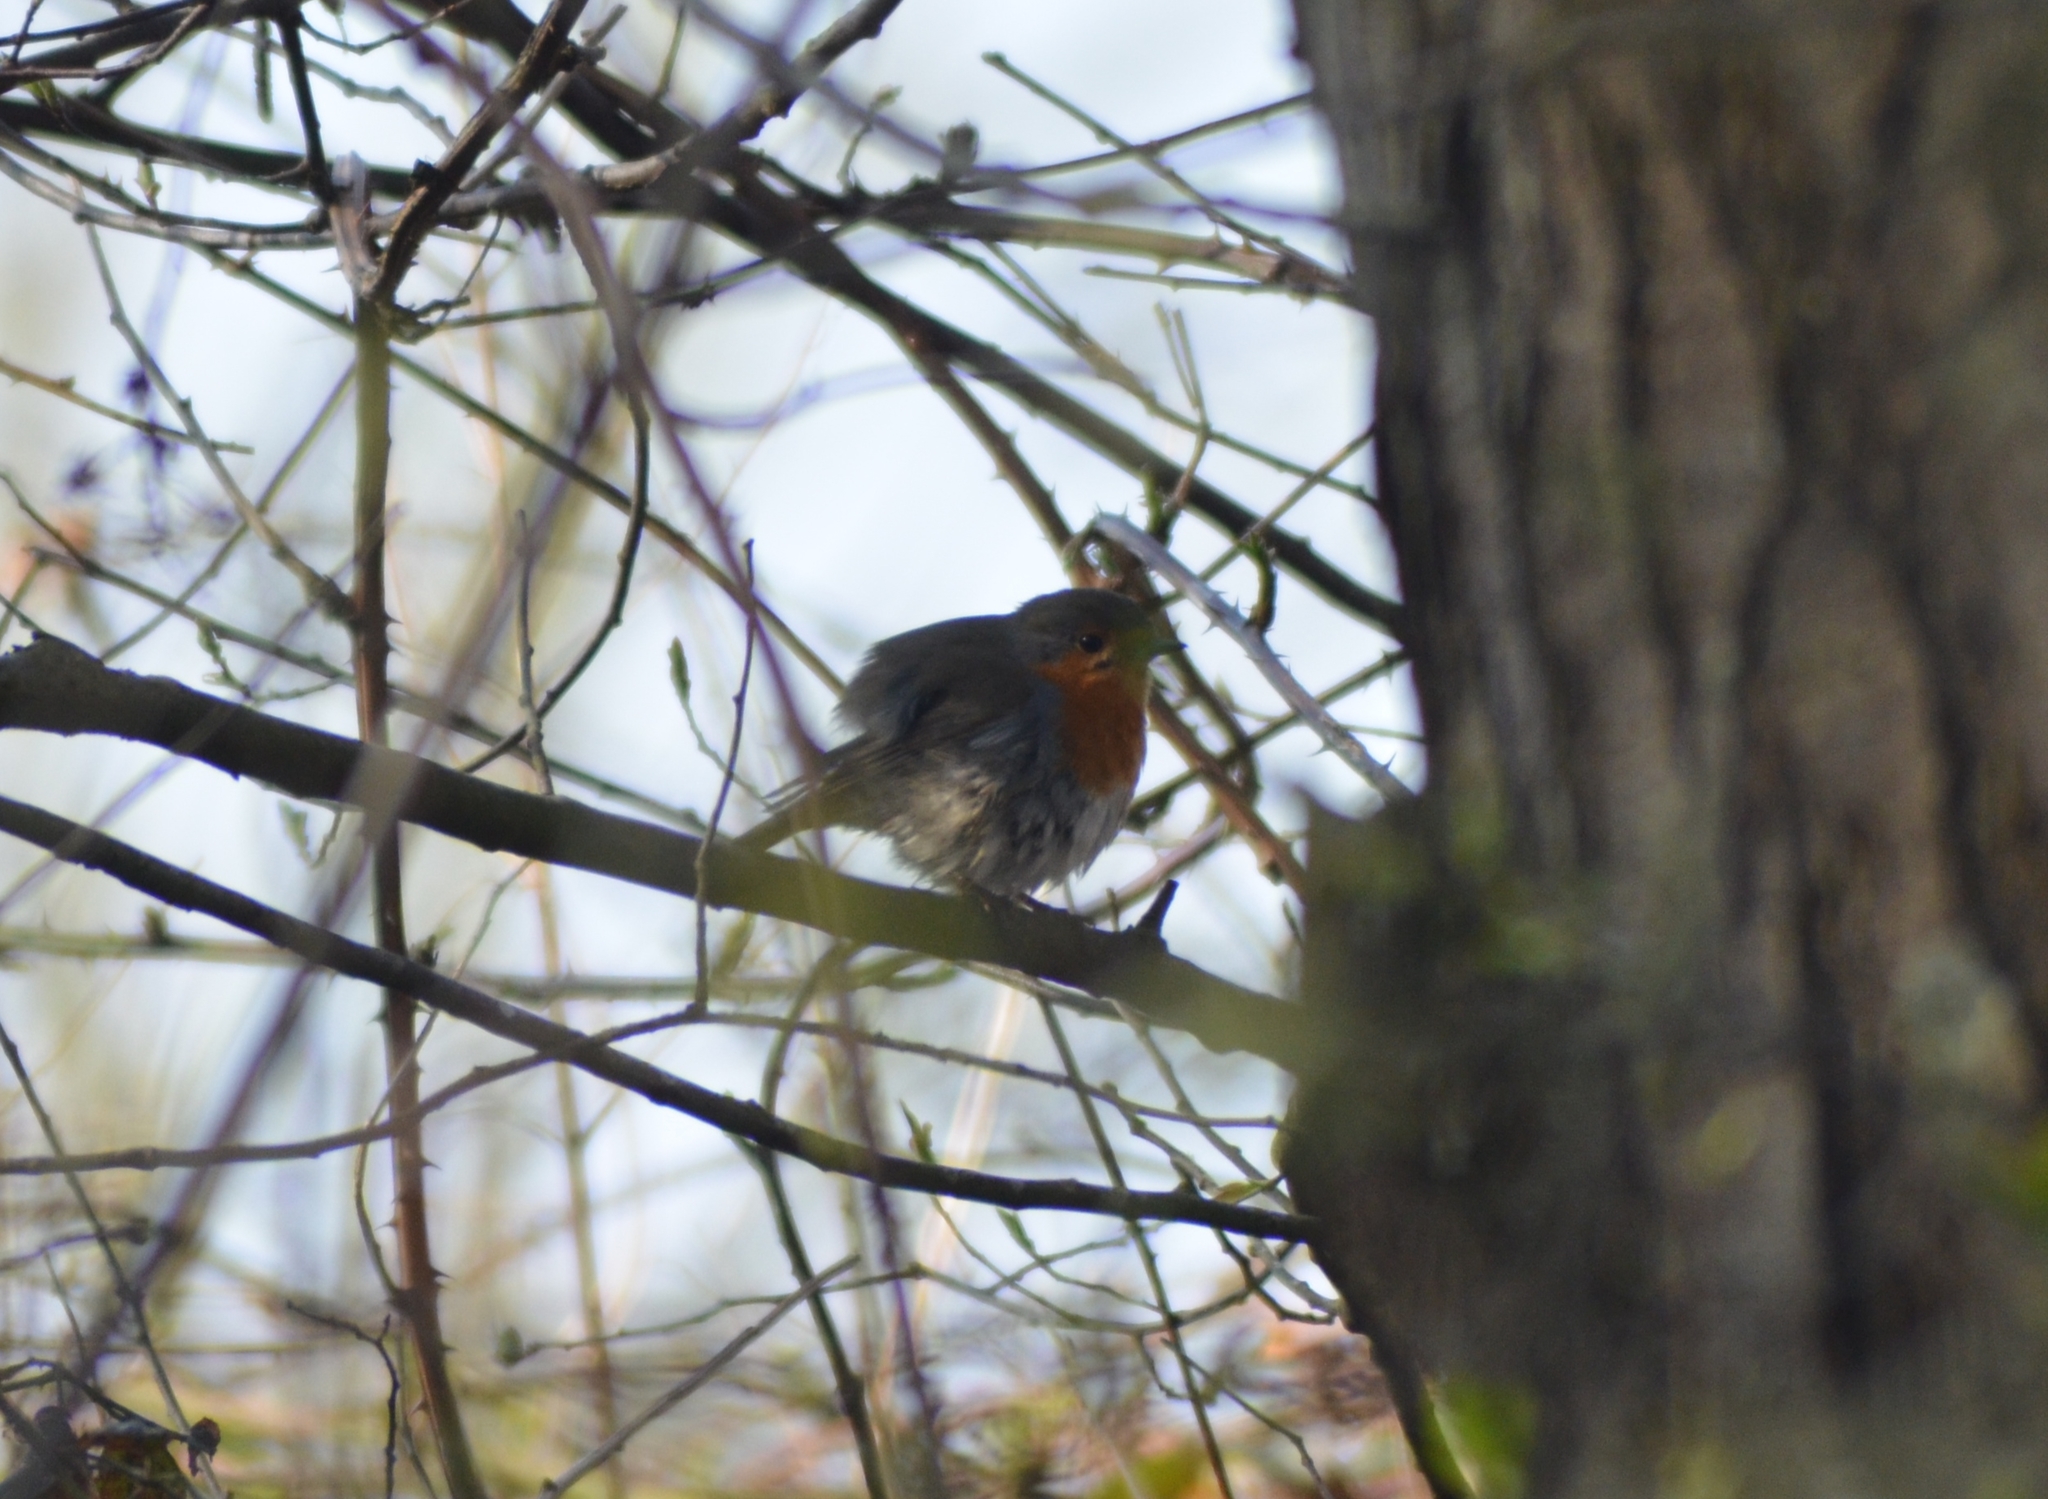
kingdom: Animalia
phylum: Chordata
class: Aves
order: Passeriformes
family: Muscicapidae
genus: Erithacus
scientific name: Erithacus rubecula
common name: European robin
